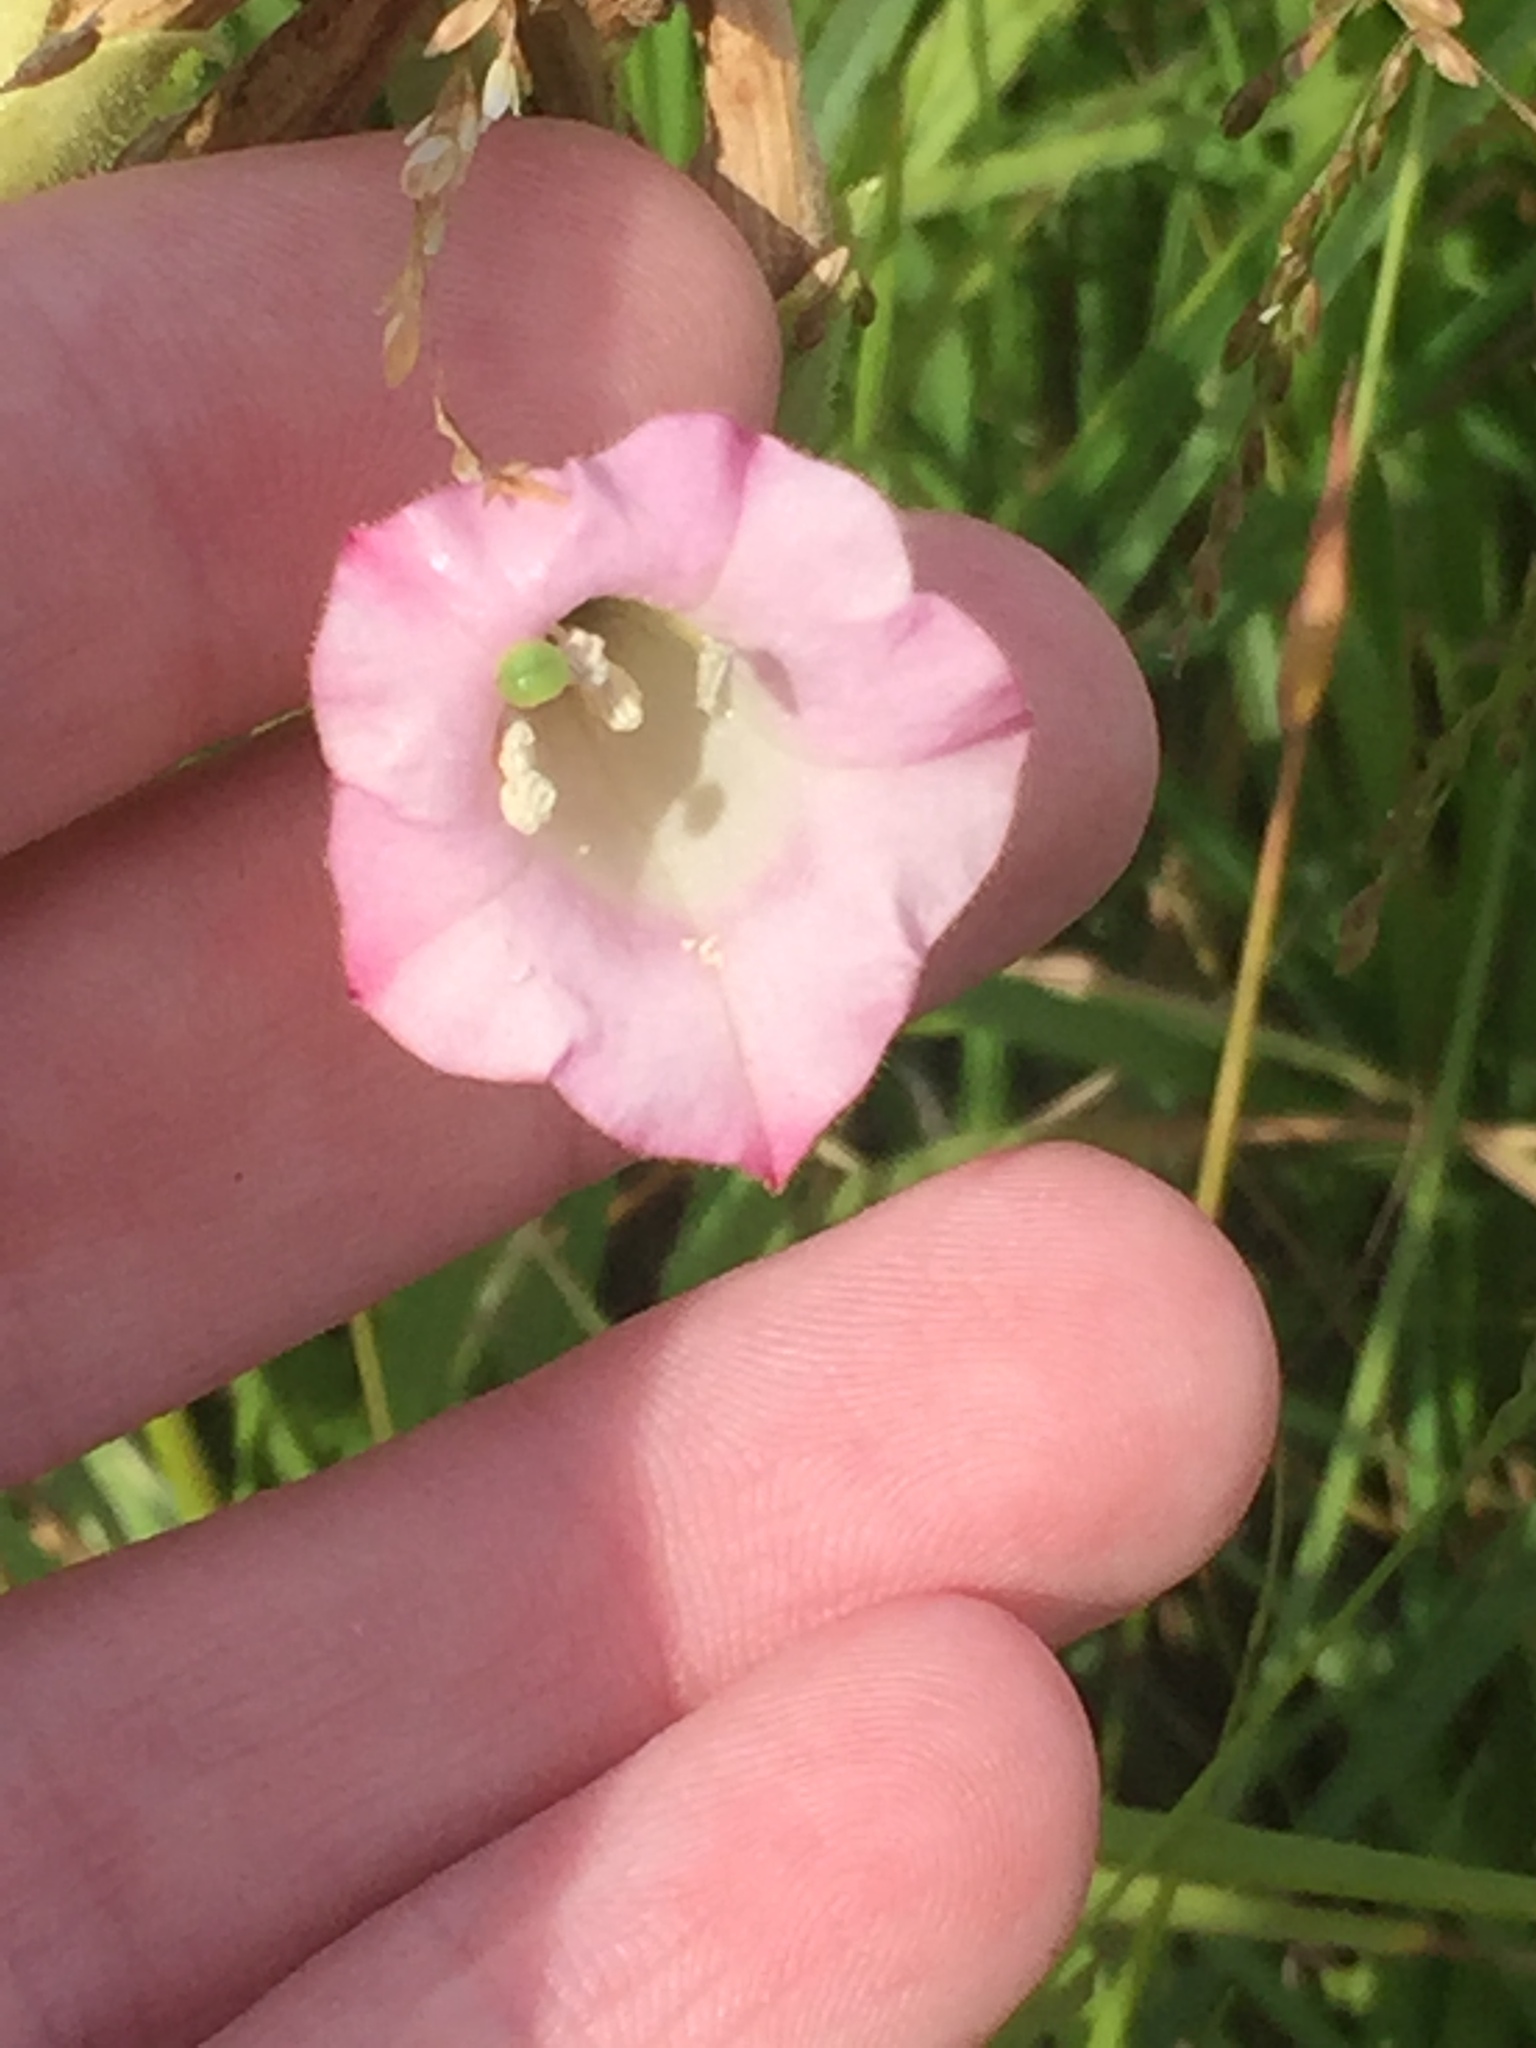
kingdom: Plantae
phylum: Tracheophyta
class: Magnoliopsida
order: Solanales
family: Solanaceae
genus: Nicotiana
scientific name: Nicotiana tabacum
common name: Tobacco
